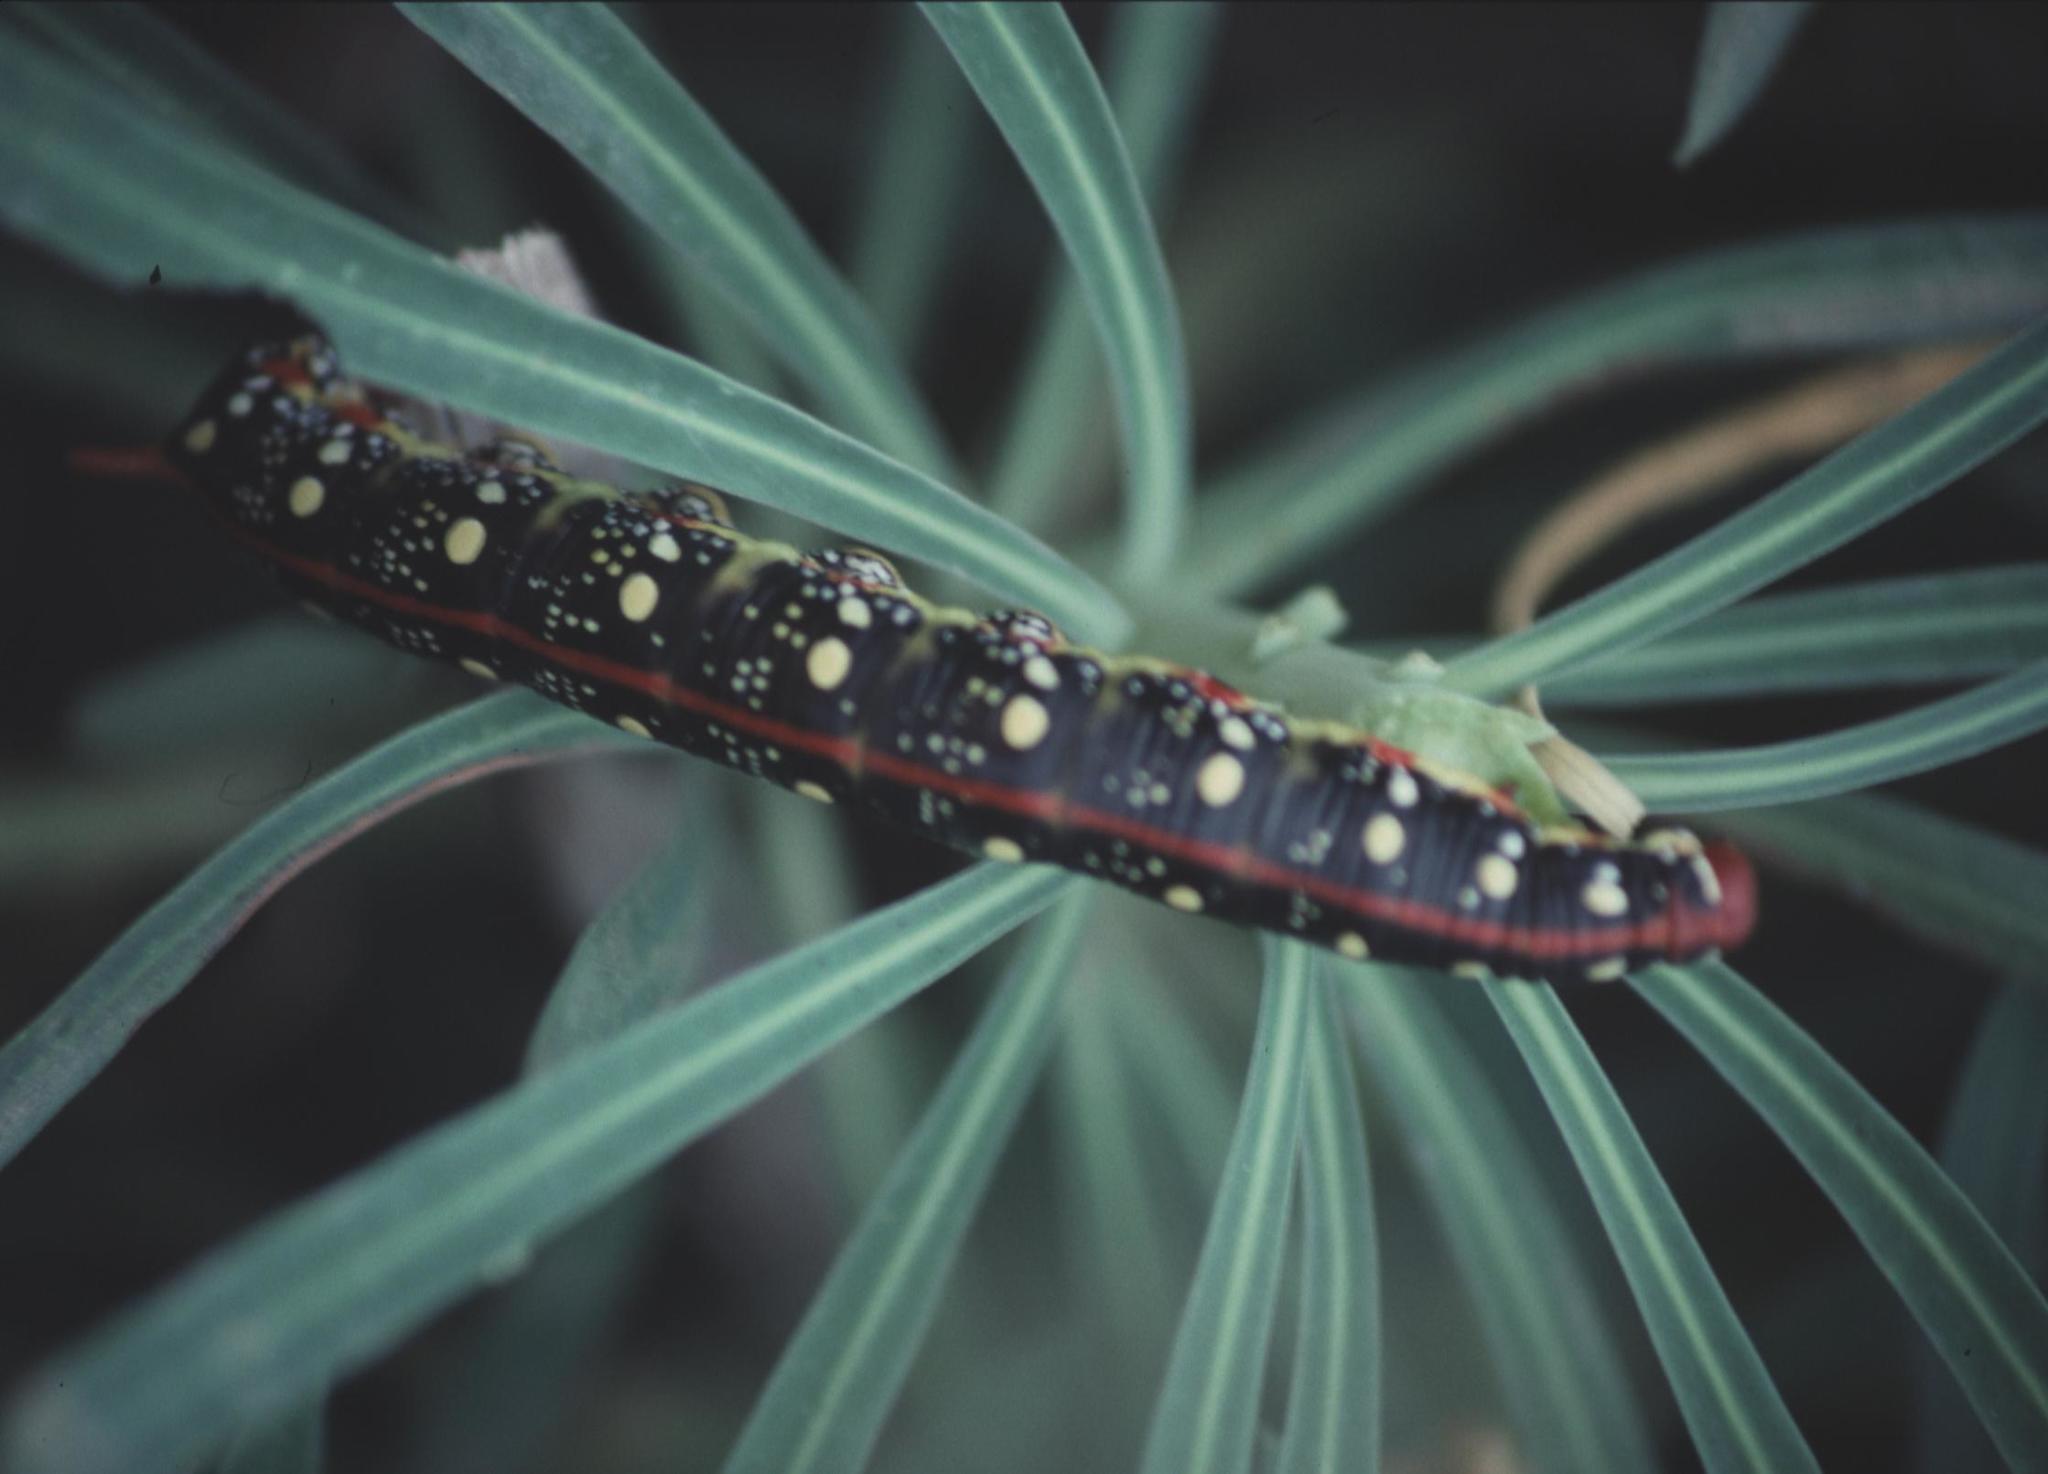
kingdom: Animalia
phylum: Arthropoda
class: Insecta
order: Lepidoptera
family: Sphingidae
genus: Hyles
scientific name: Hyles euphorbiae
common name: Spurge hawk-moth
